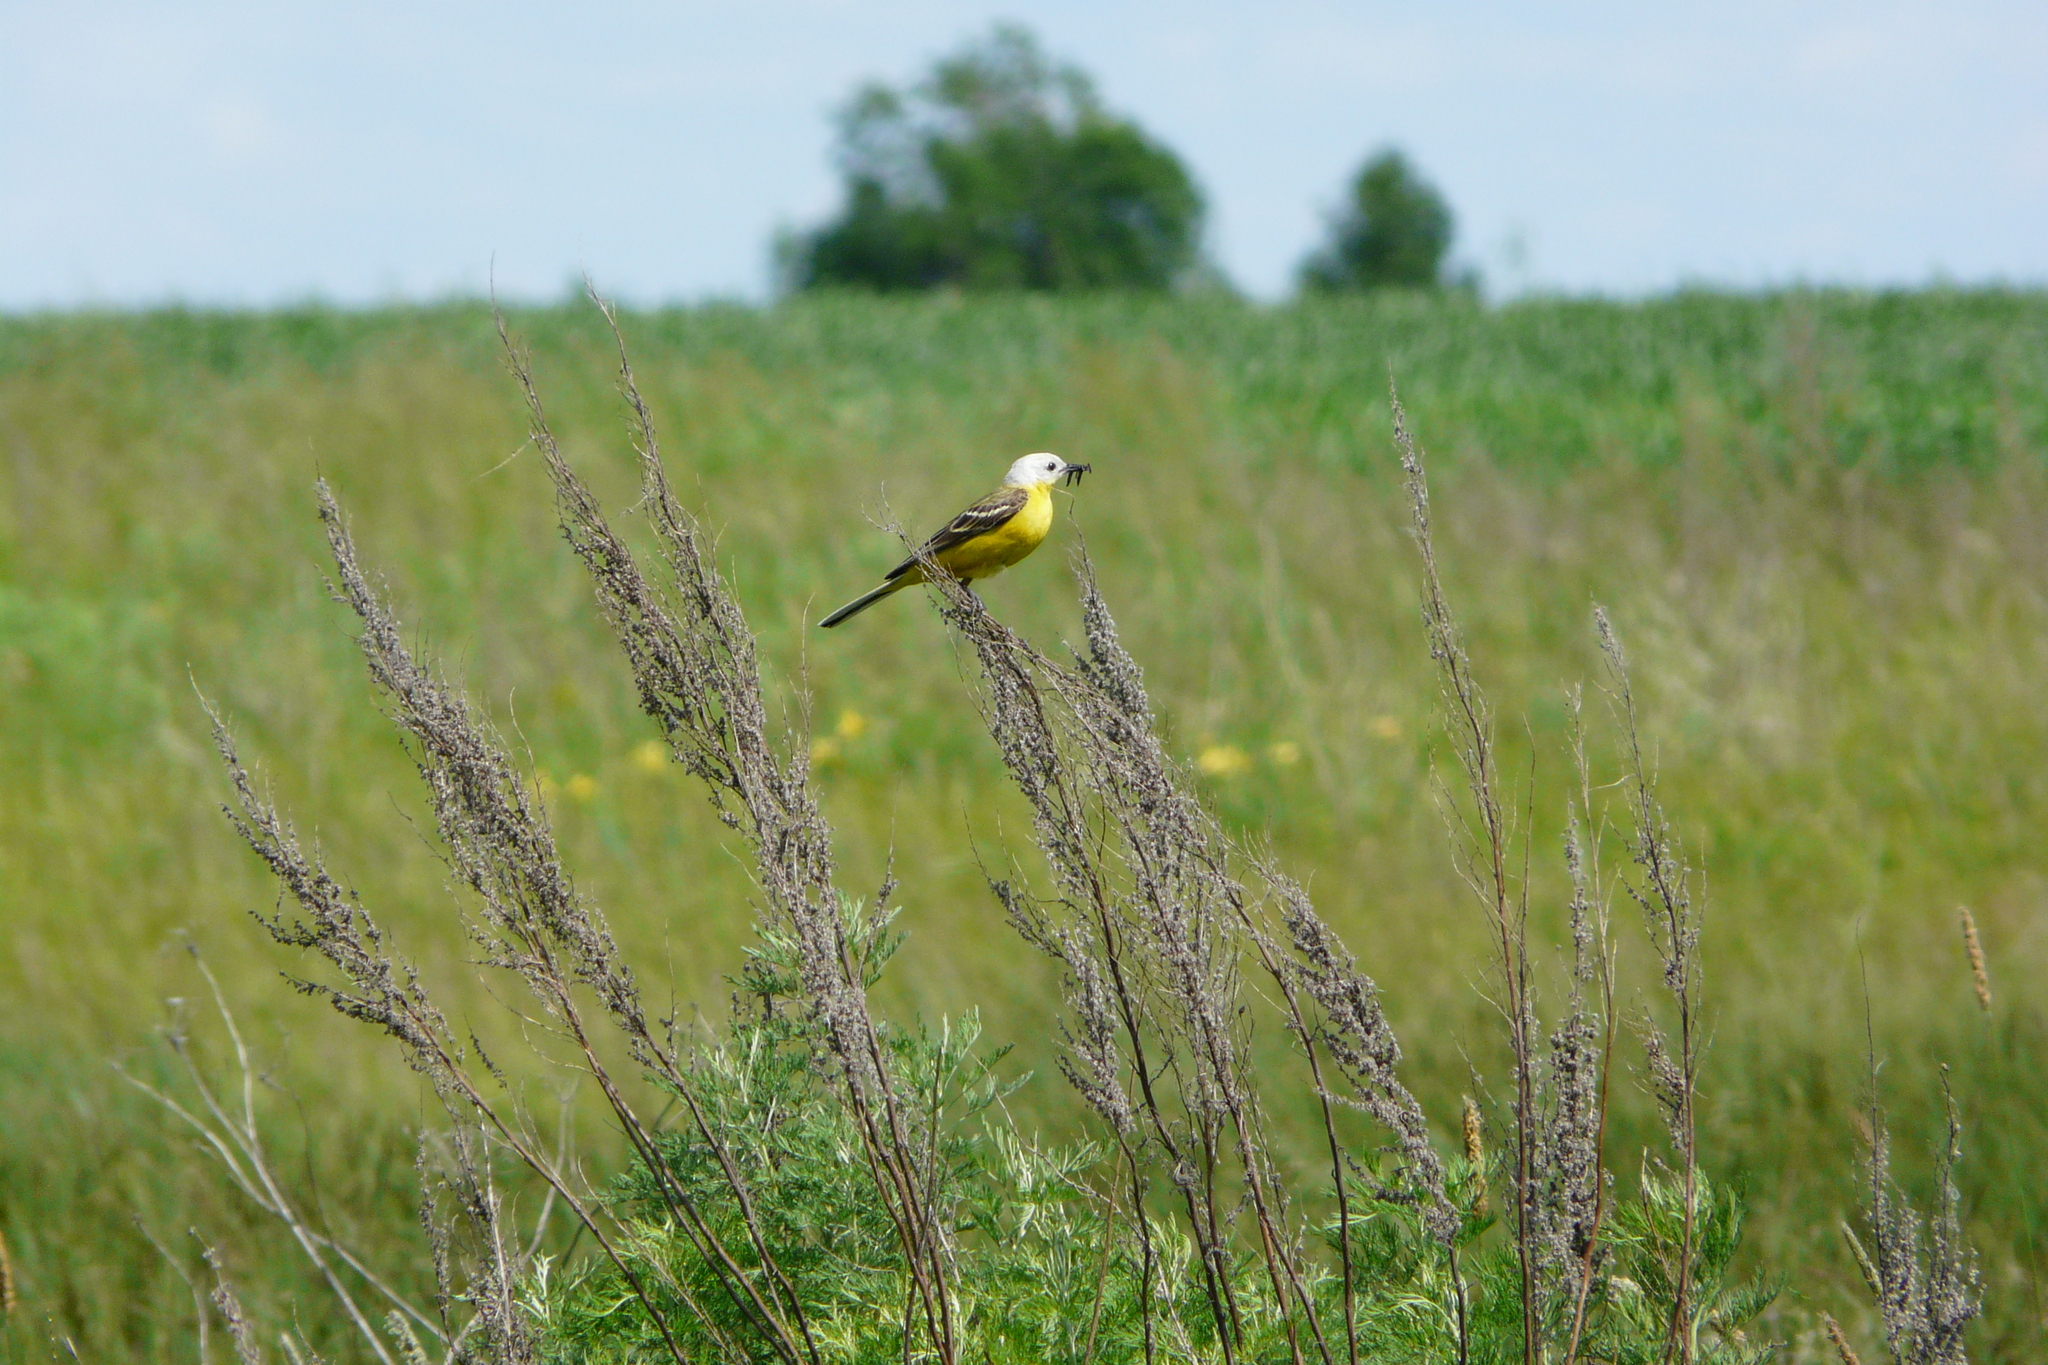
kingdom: Animalia
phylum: Chordata
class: Aves
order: Passeriformes
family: Motacillidae
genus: Motacilla
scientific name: Motacilla flava
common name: Western yellow wagtail
